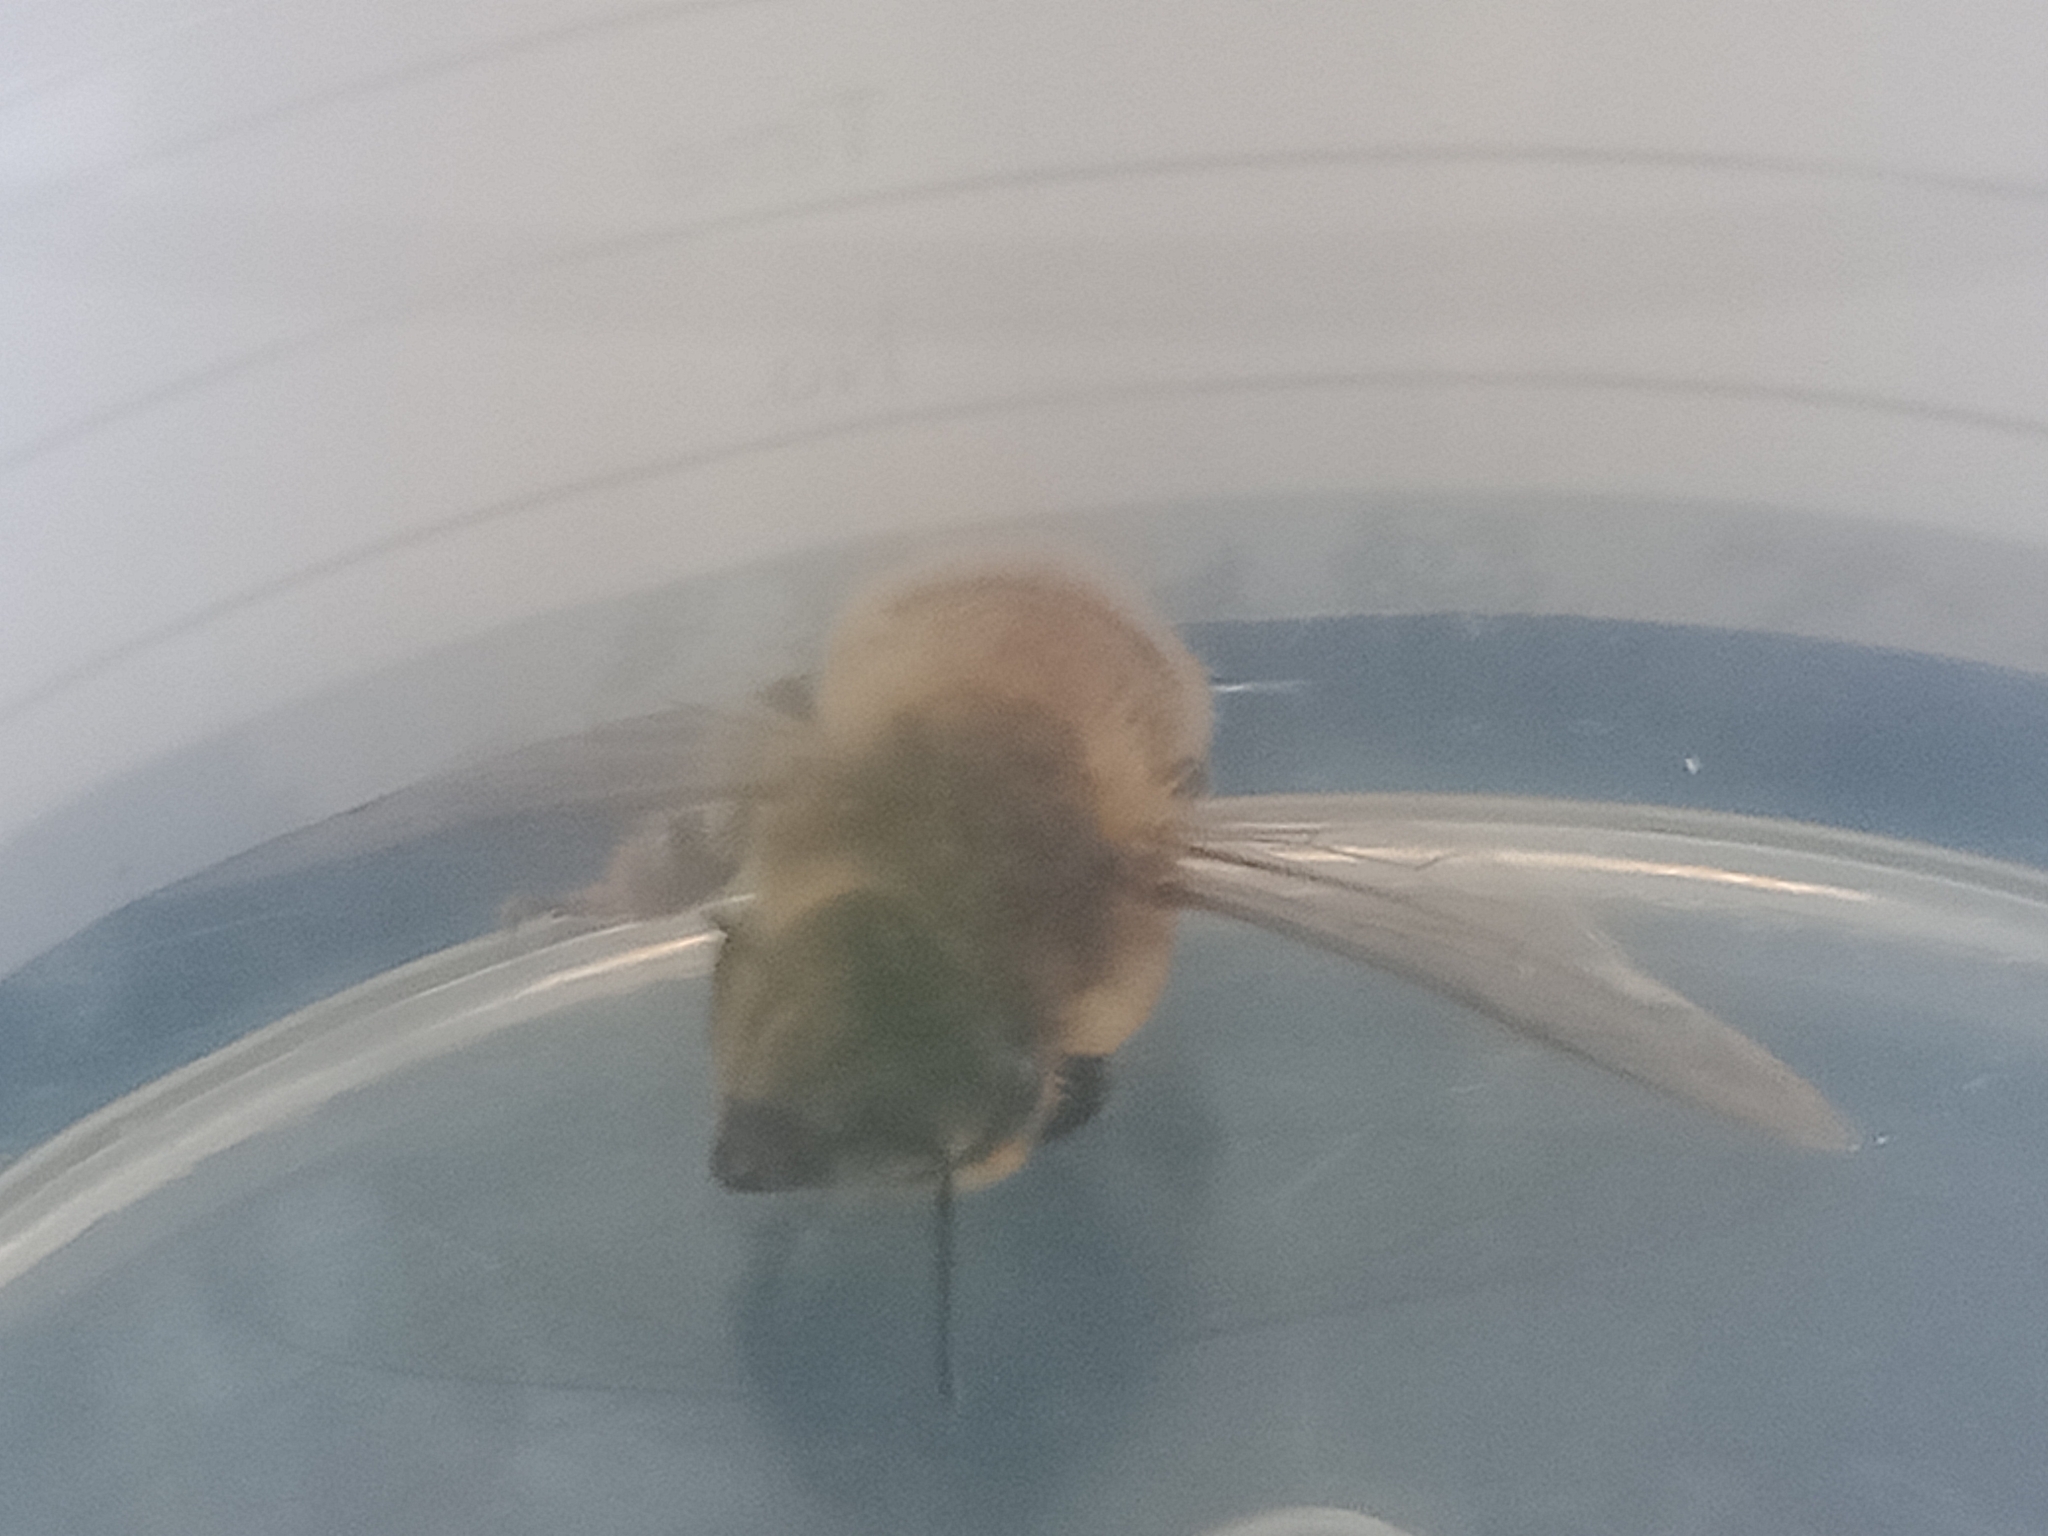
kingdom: Animalia
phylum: Arthropoda
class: Insecta
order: Hymenoptera
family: Apidae
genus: Apis
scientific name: Apis mellifera
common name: Honey bee
